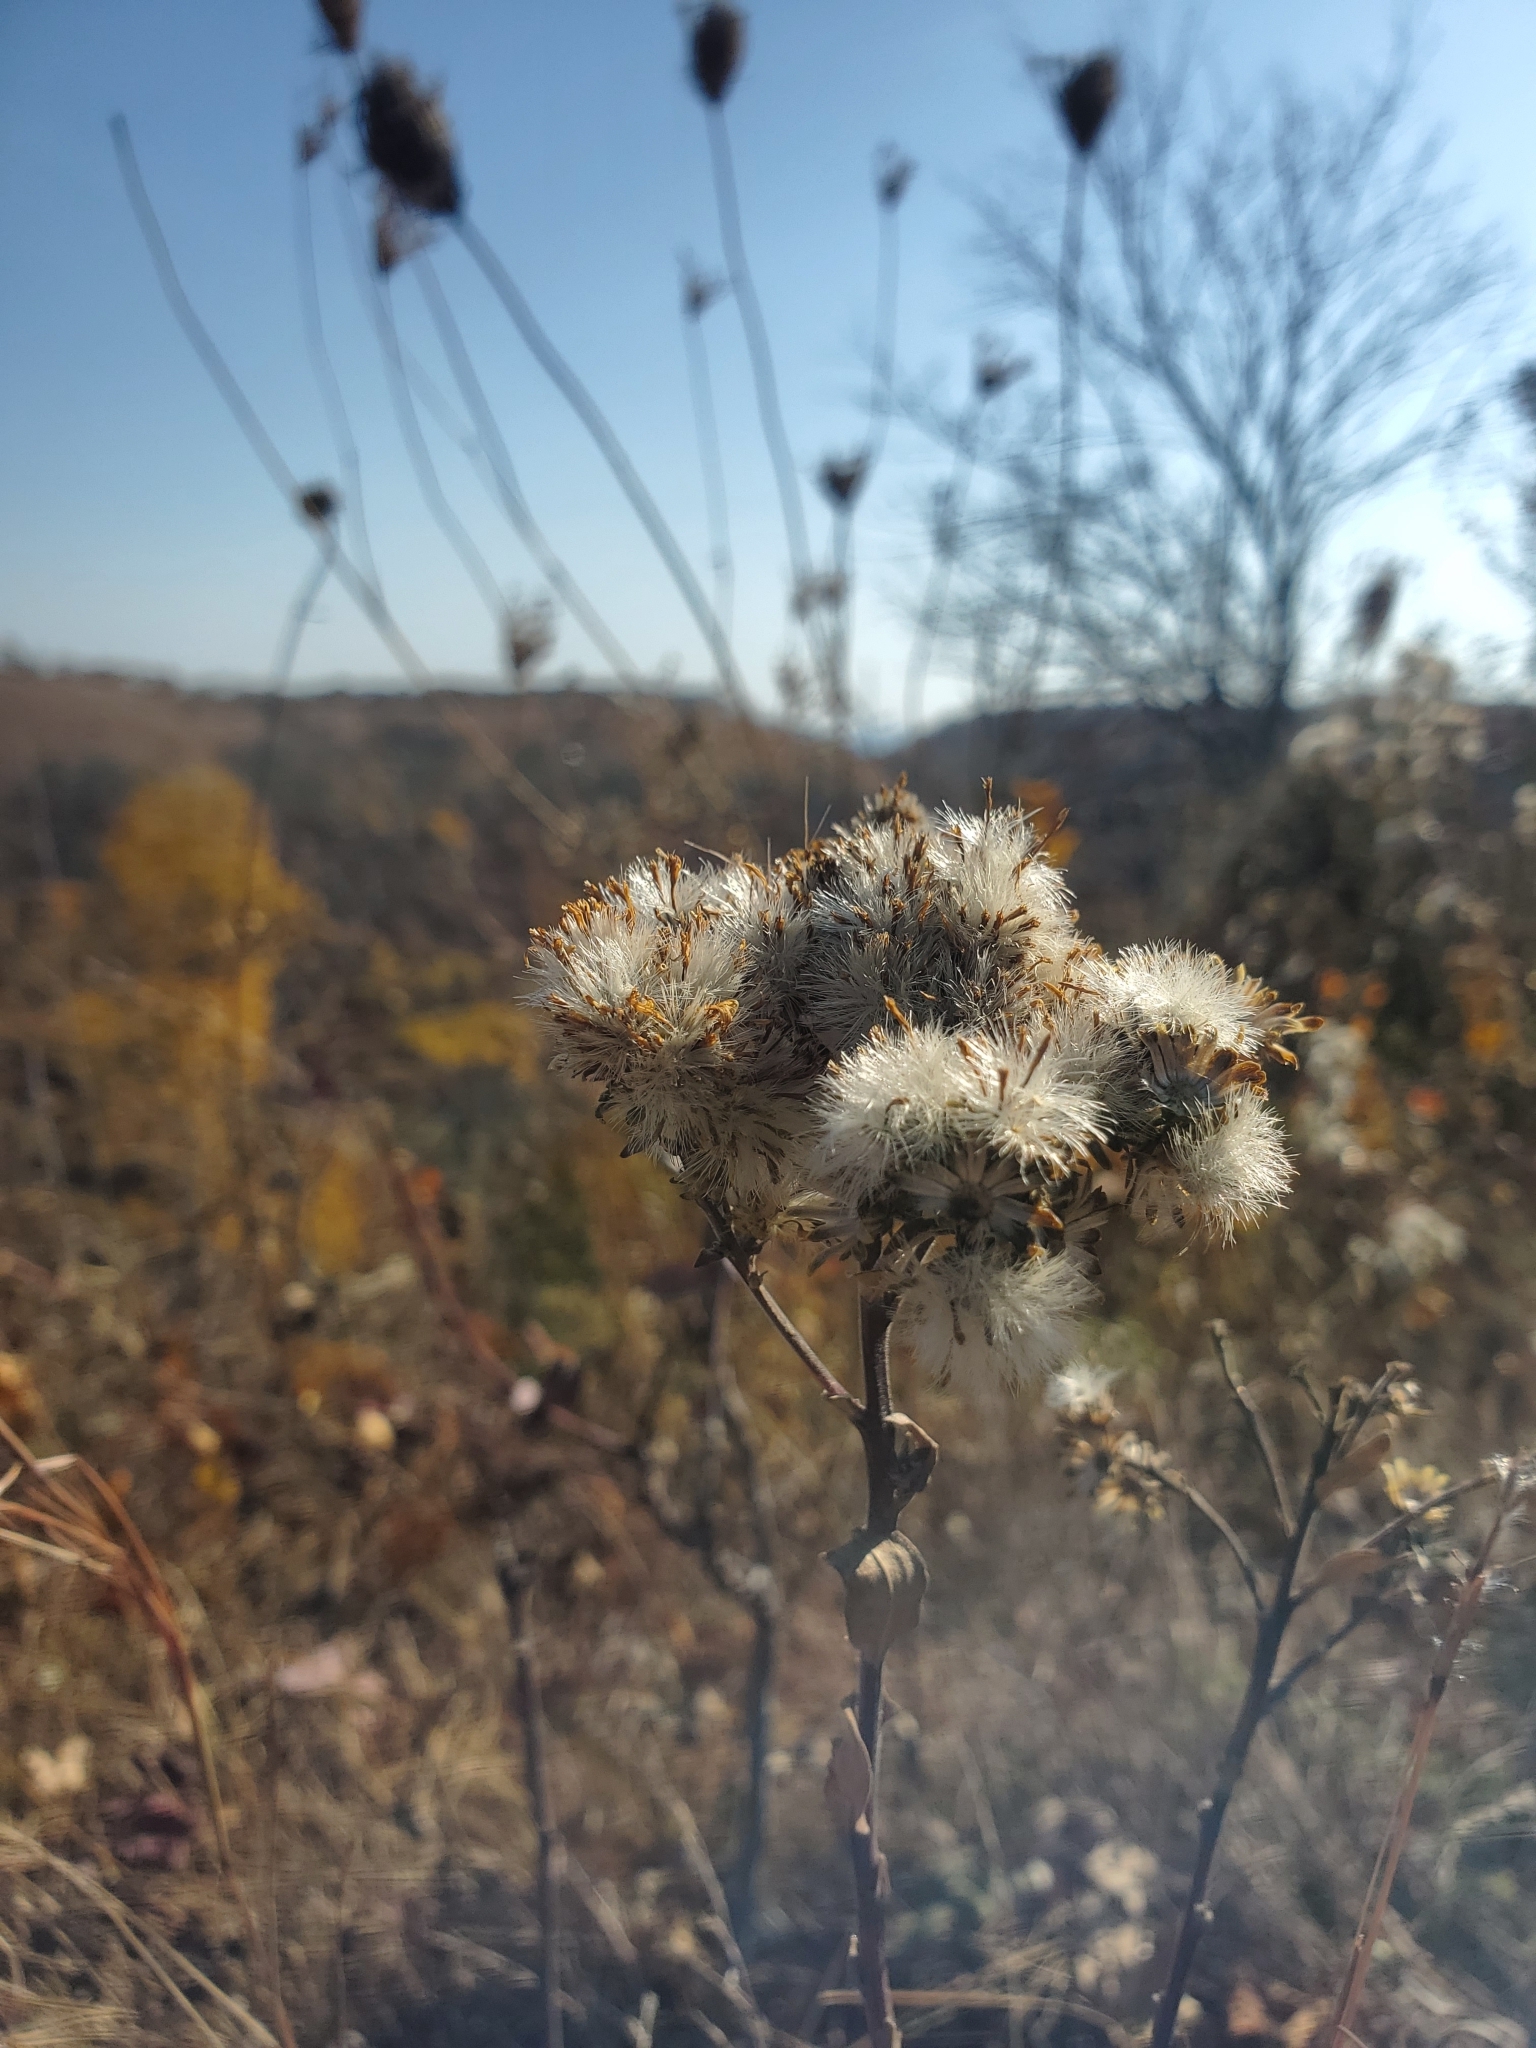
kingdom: Plantae
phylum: Tracheophyta
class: Magnoliopsida
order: Asterales
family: Asteraceae
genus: Solidago
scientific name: Solidago rigida
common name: Rigid goldenrod
